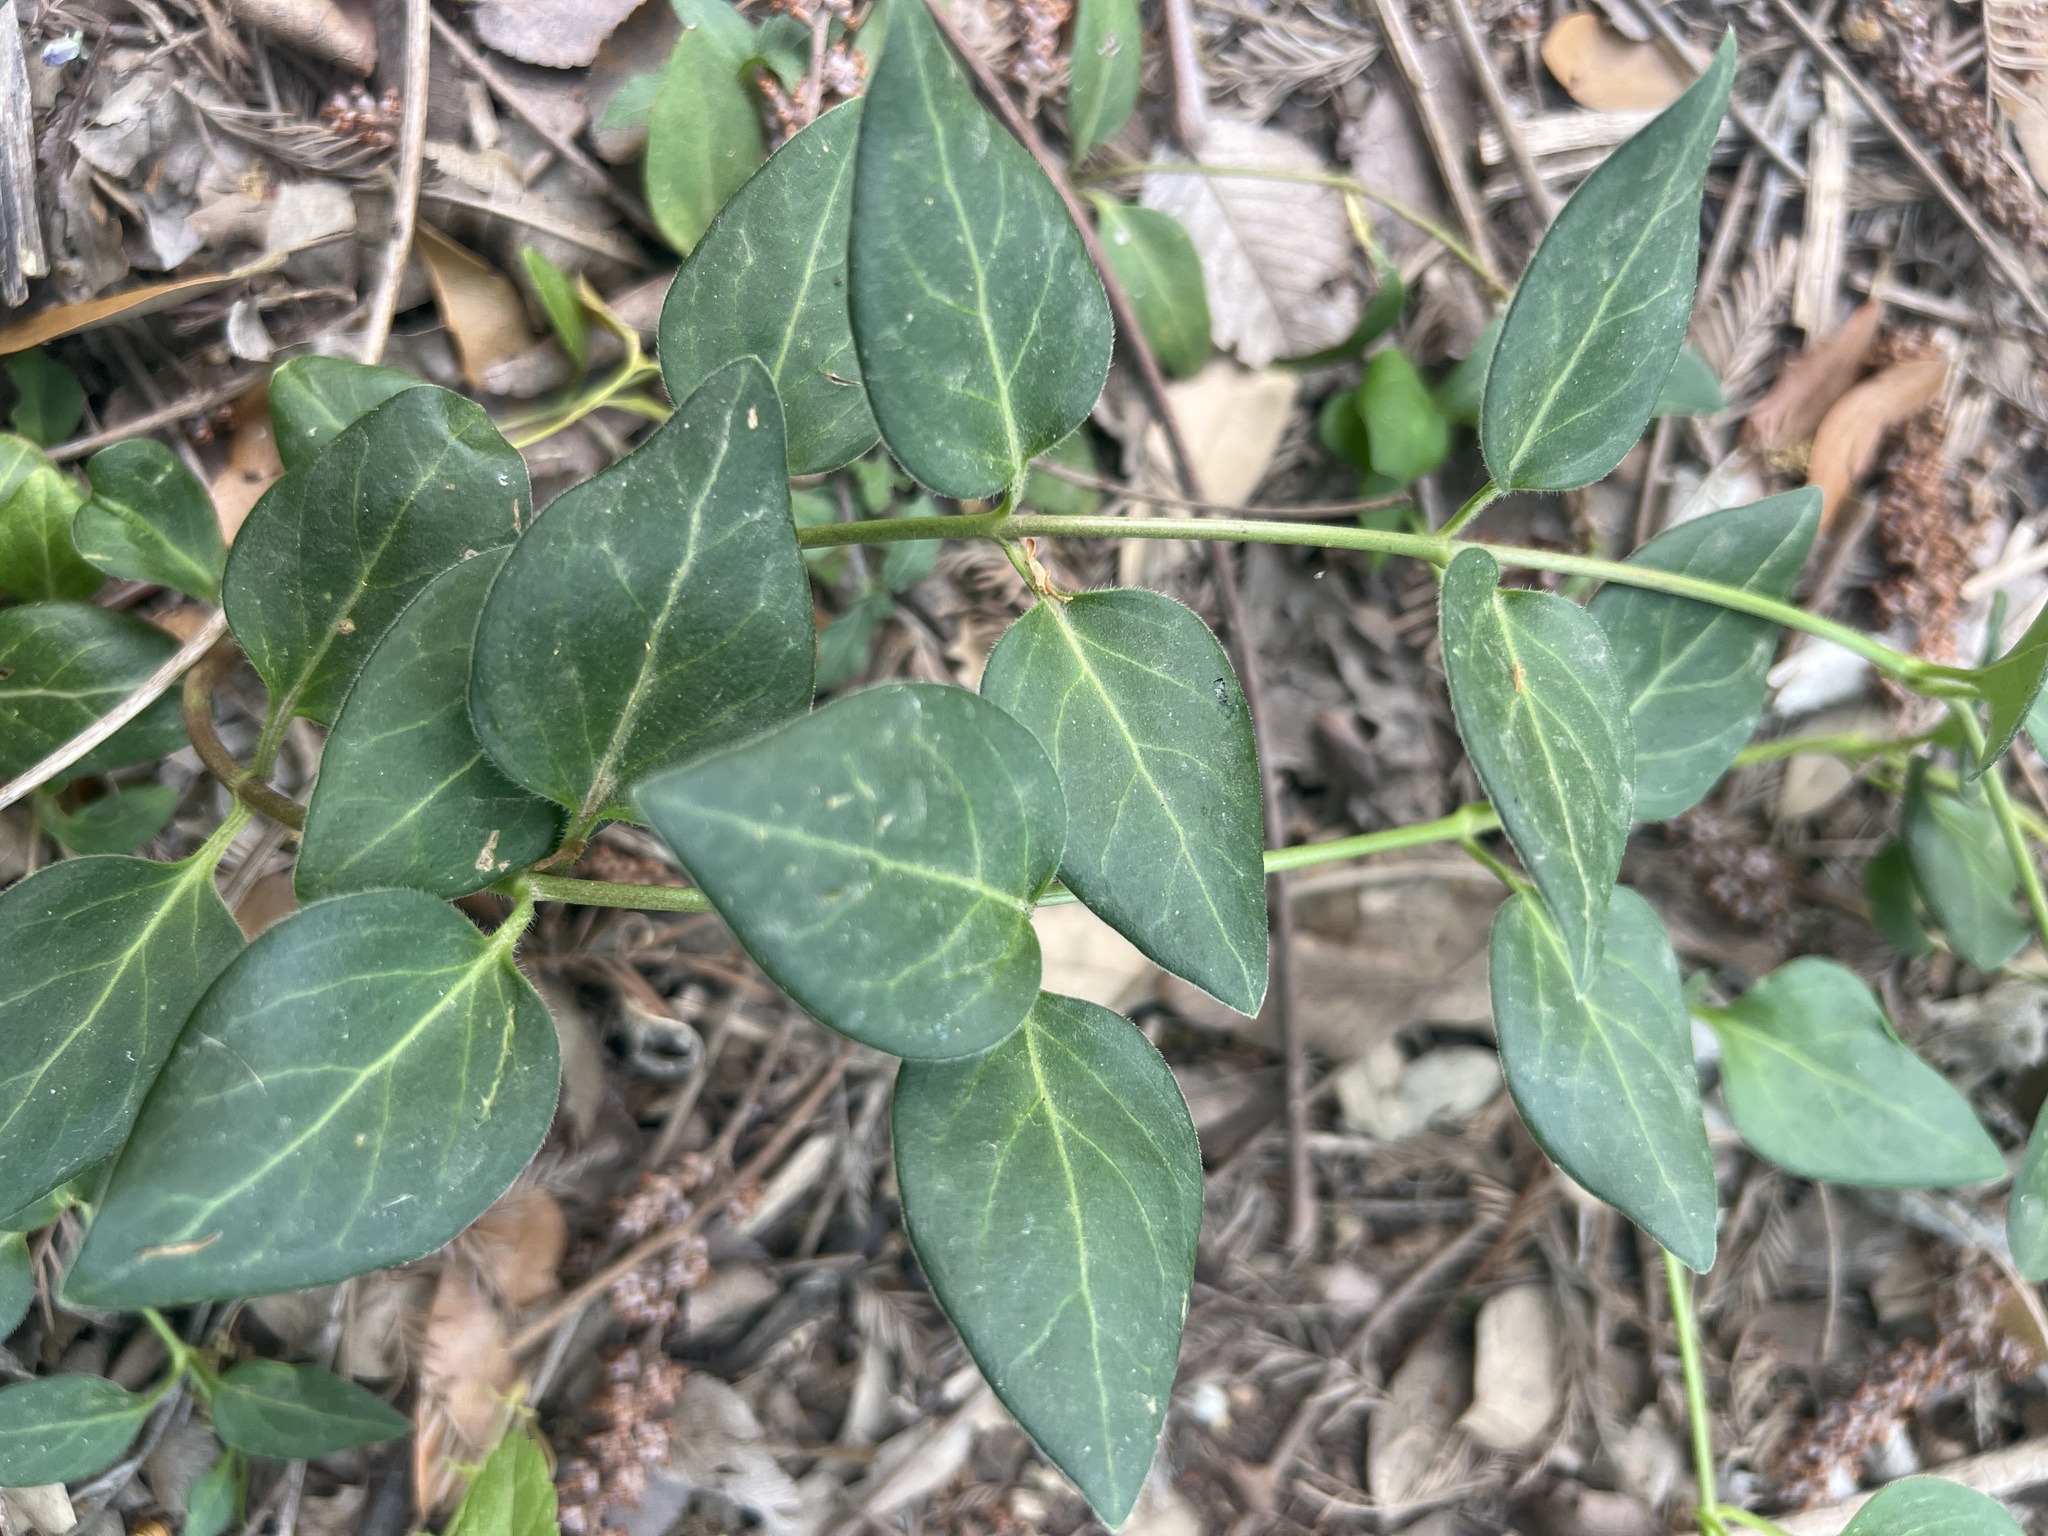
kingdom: Plantae
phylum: Tracheophyta
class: Magnoliopsida
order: Gentianales
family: Apocynaceae
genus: Vinca
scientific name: Vinca major
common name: Greater periwinkle
